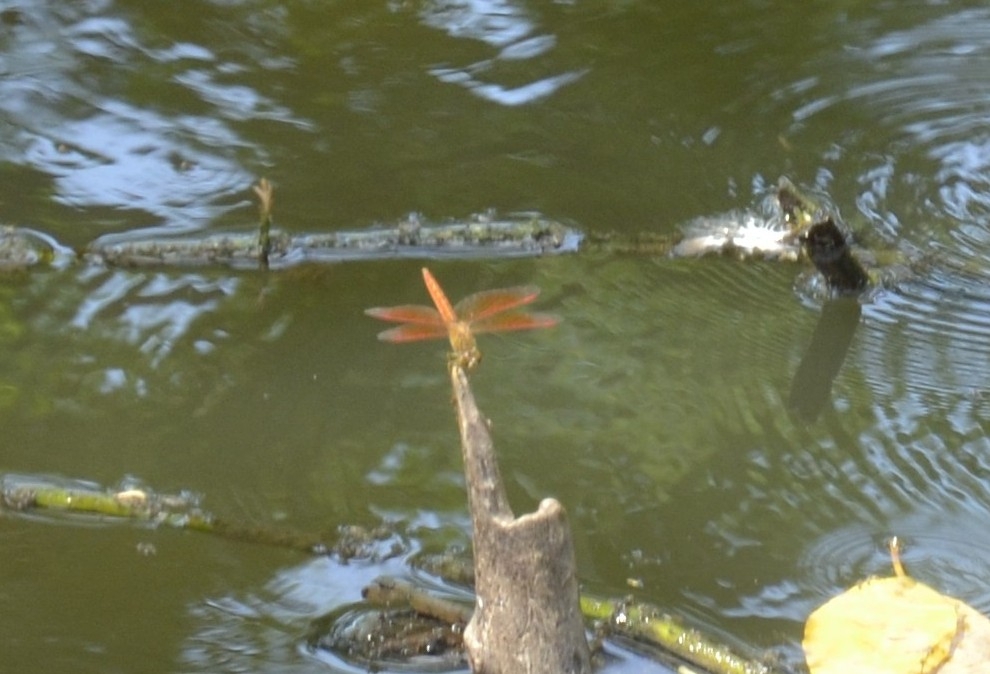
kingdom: Animalia
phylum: Arthropoda
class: Insecta
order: Odonata
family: Libellulidae
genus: Brachythemis
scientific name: Brachythemis contaminata
